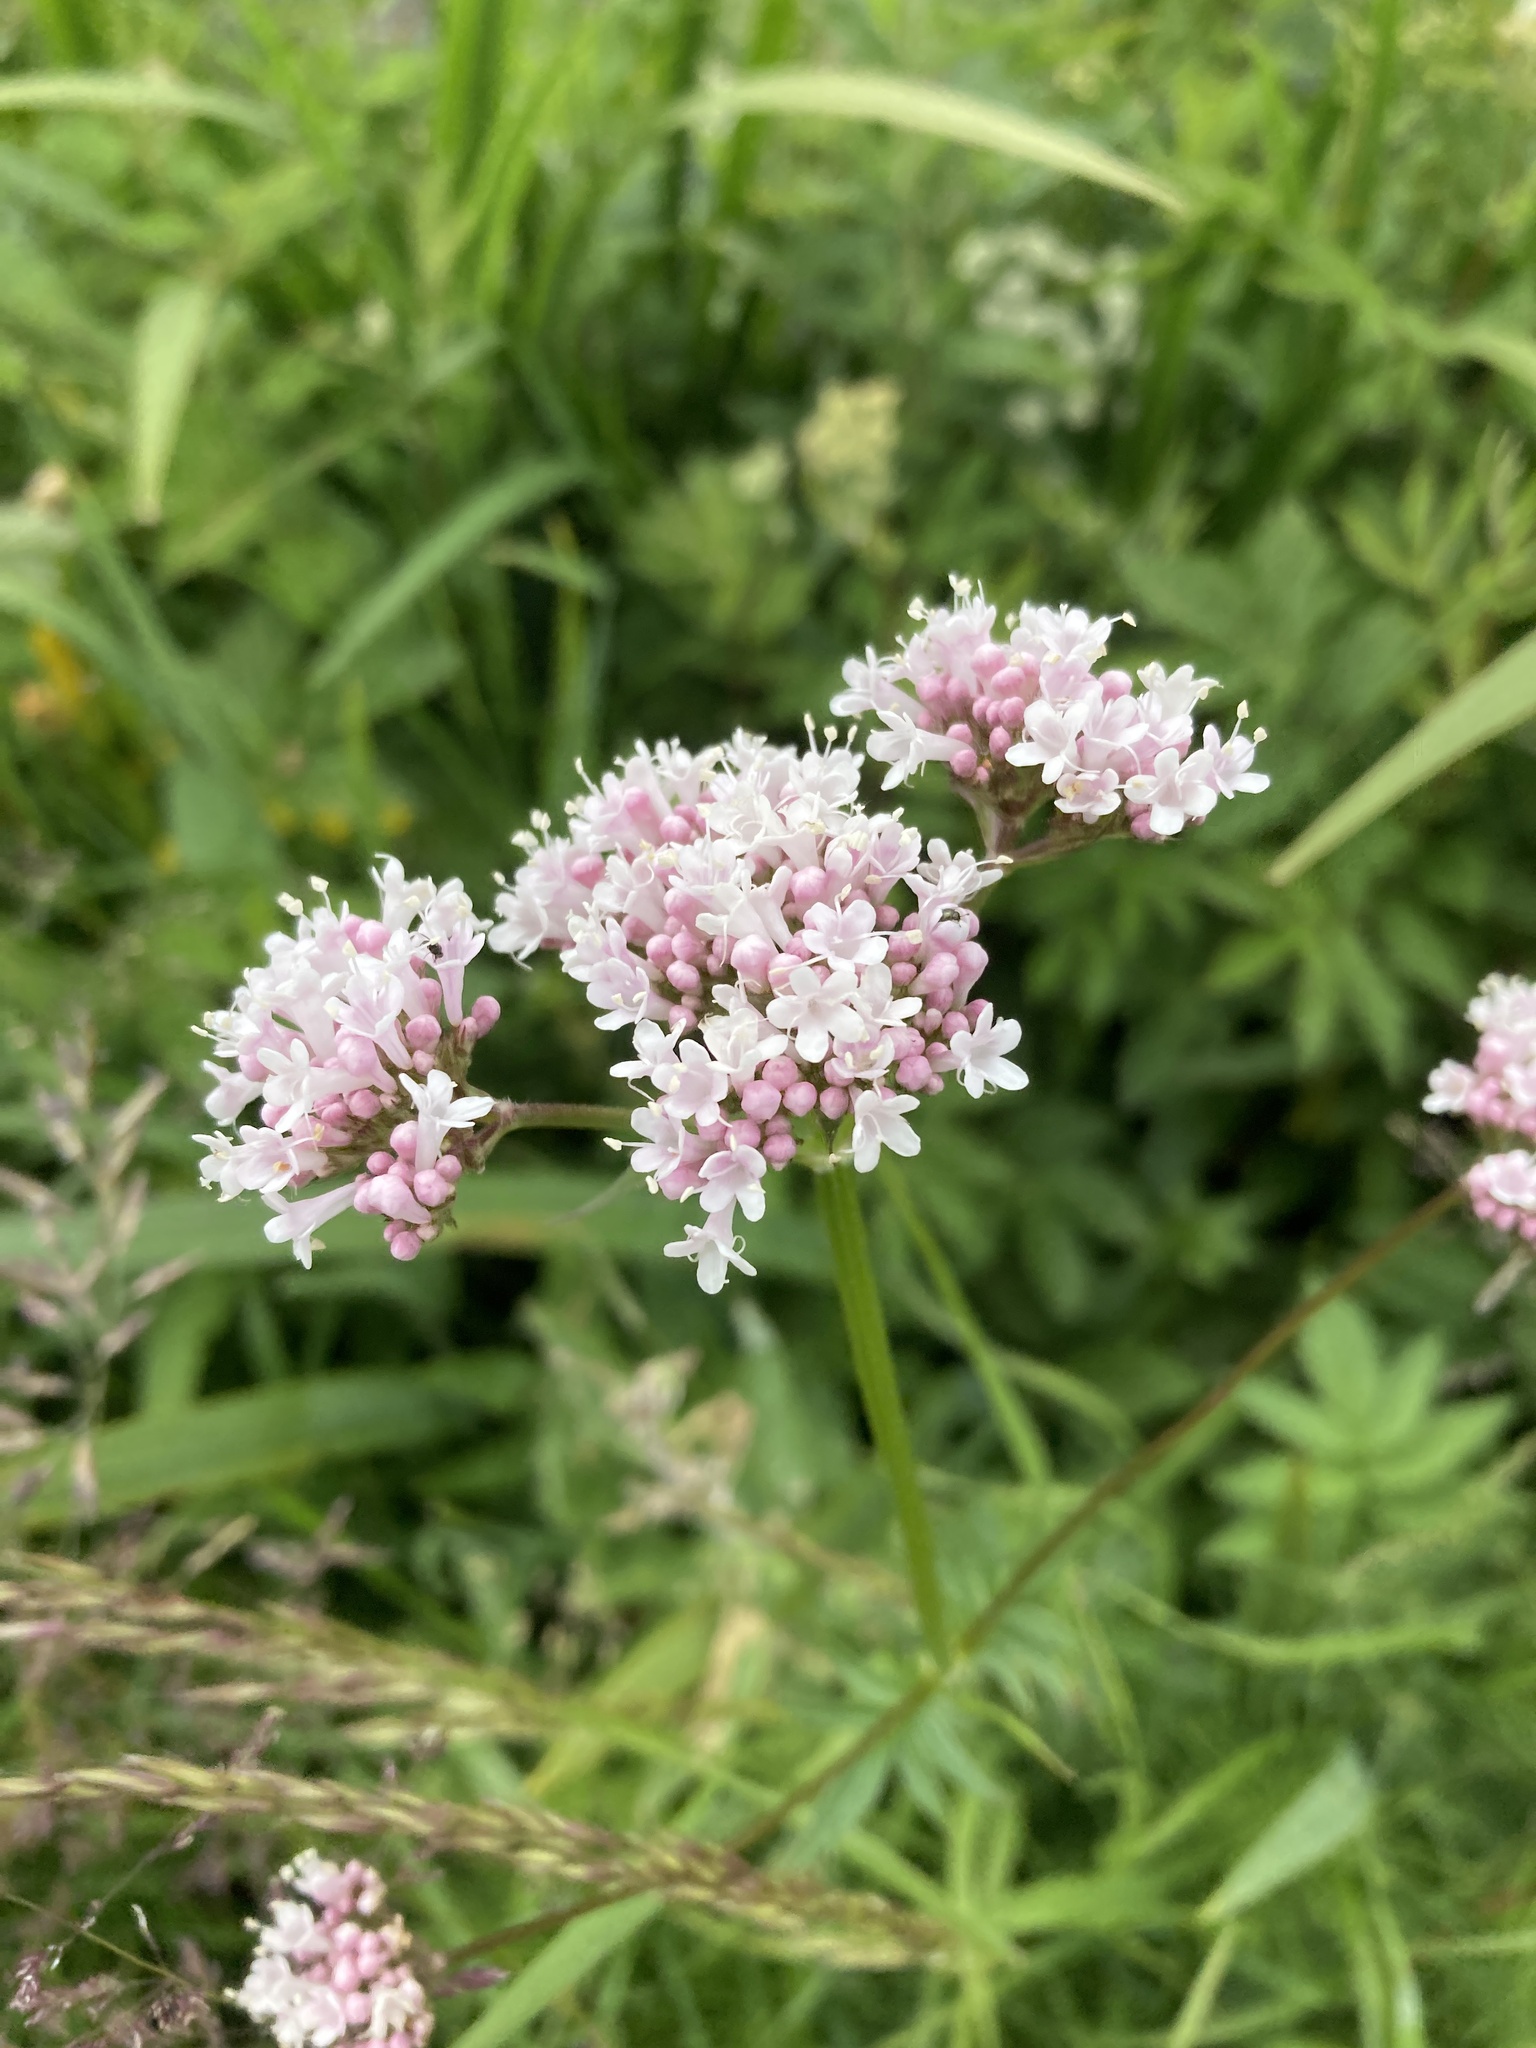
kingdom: Plantae
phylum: Tracheophyta
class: Magnoliopsida
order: Dipsacales
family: Caprifoliaceae
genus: Valeriana
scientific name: Valeriana officinalis
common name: Common valerian
